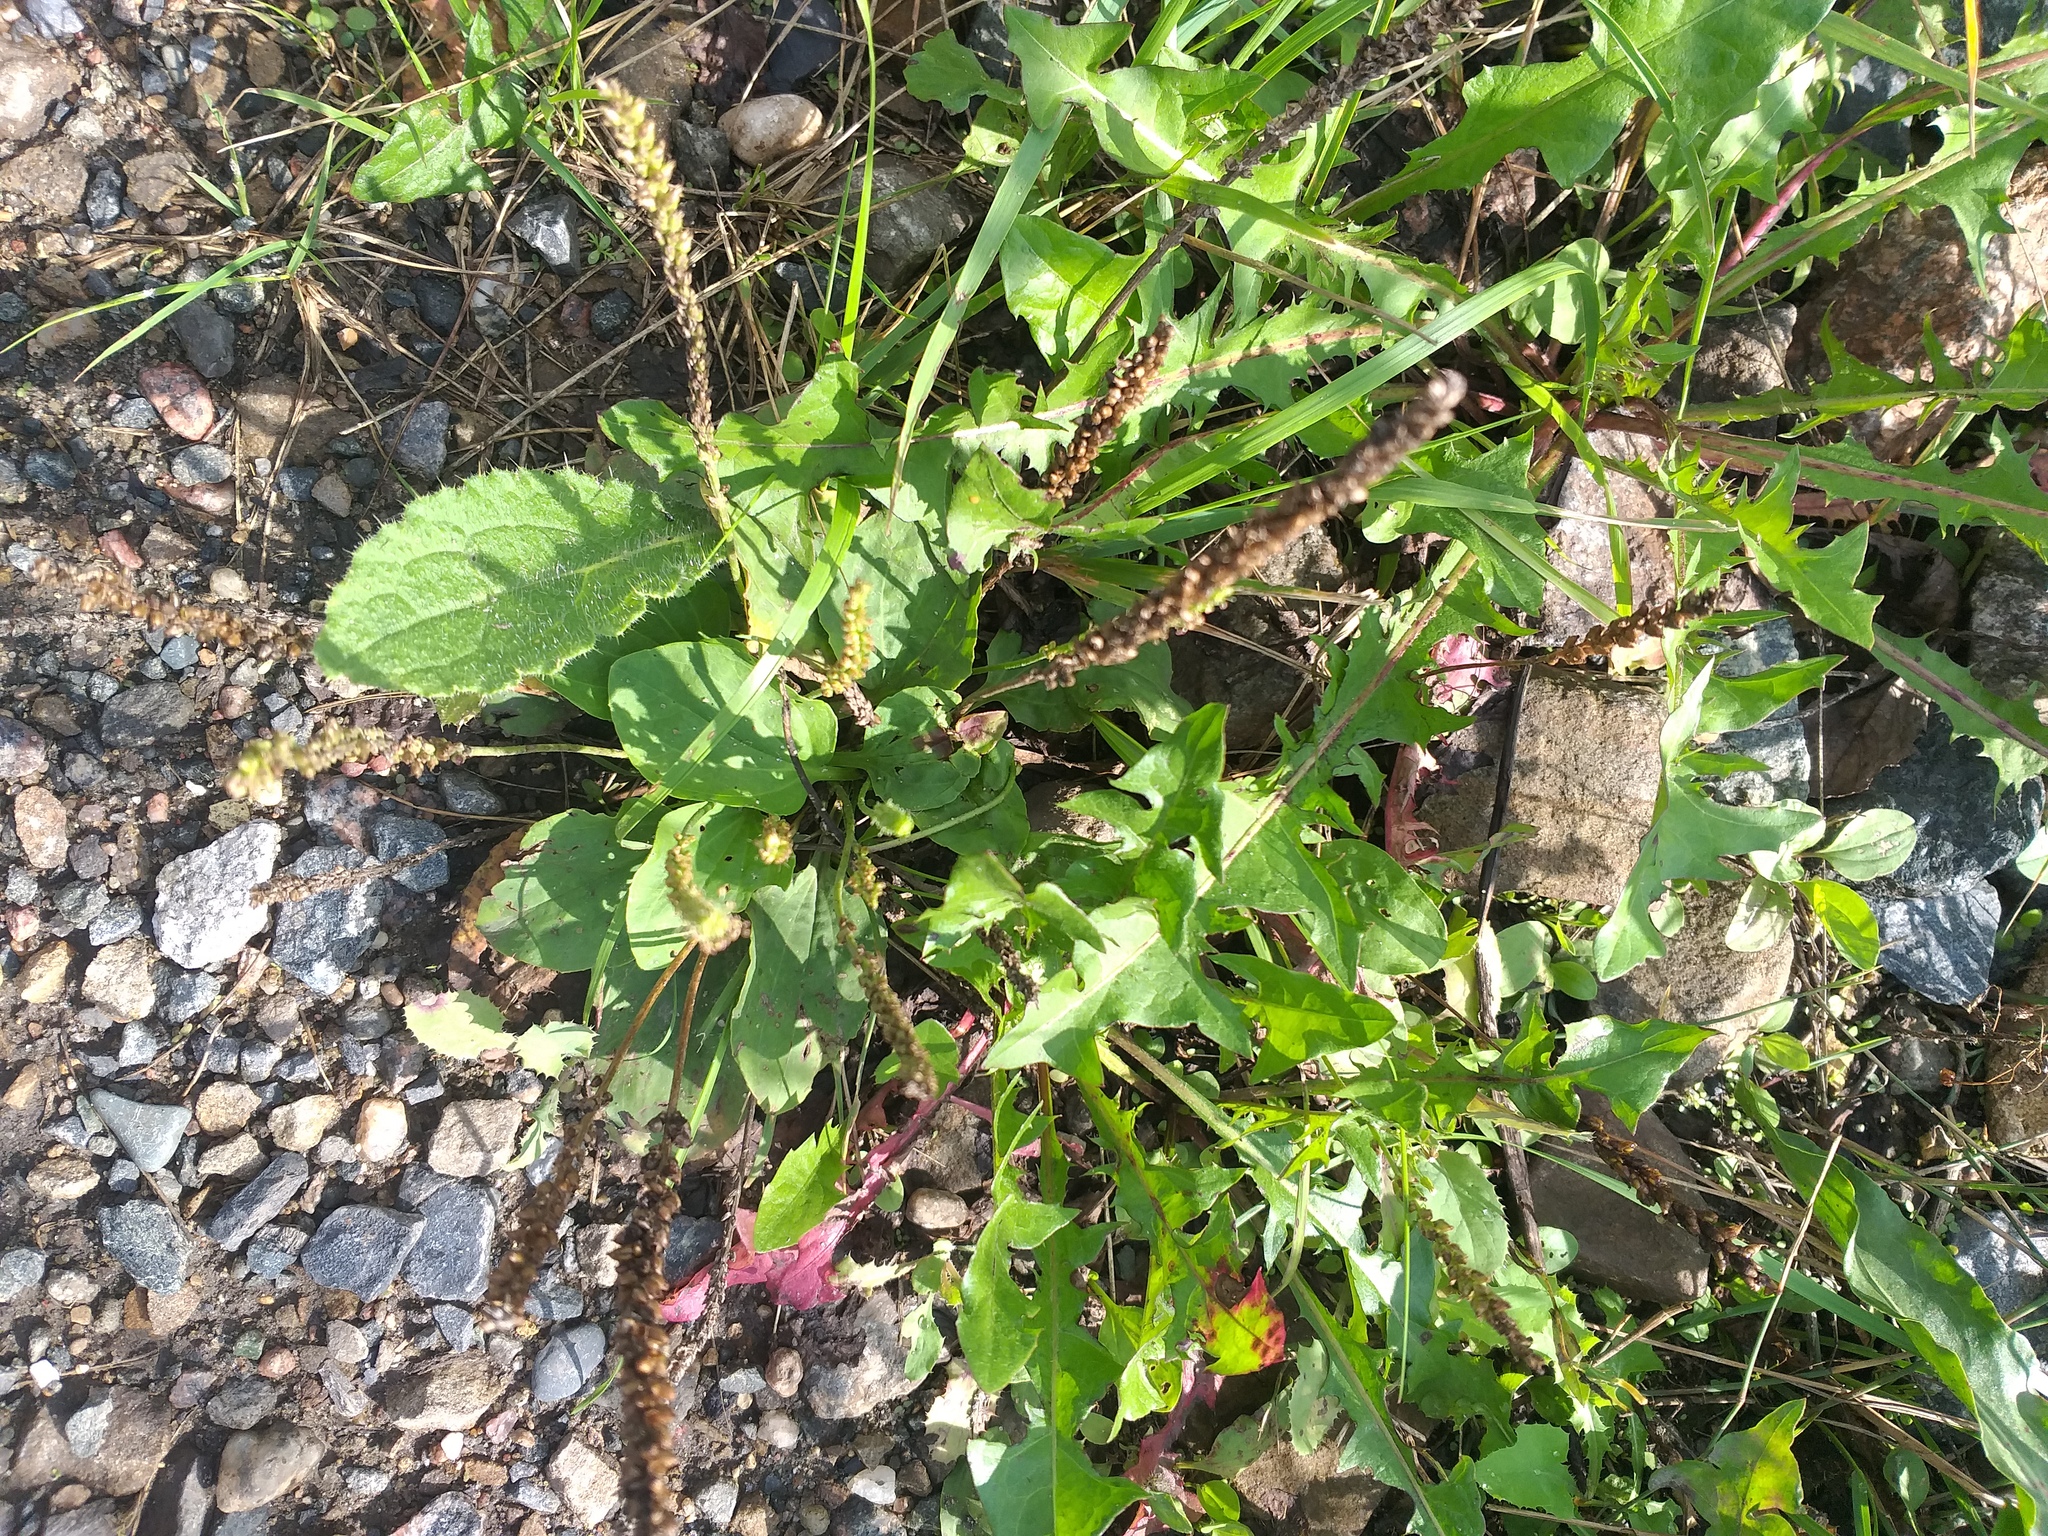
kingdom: Plantae
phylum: Tracheophyta
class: Magnoliopsida
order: Lamiales
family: Plantaginaceae
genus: Plantago
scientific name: Plantago major
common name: Common plantain
